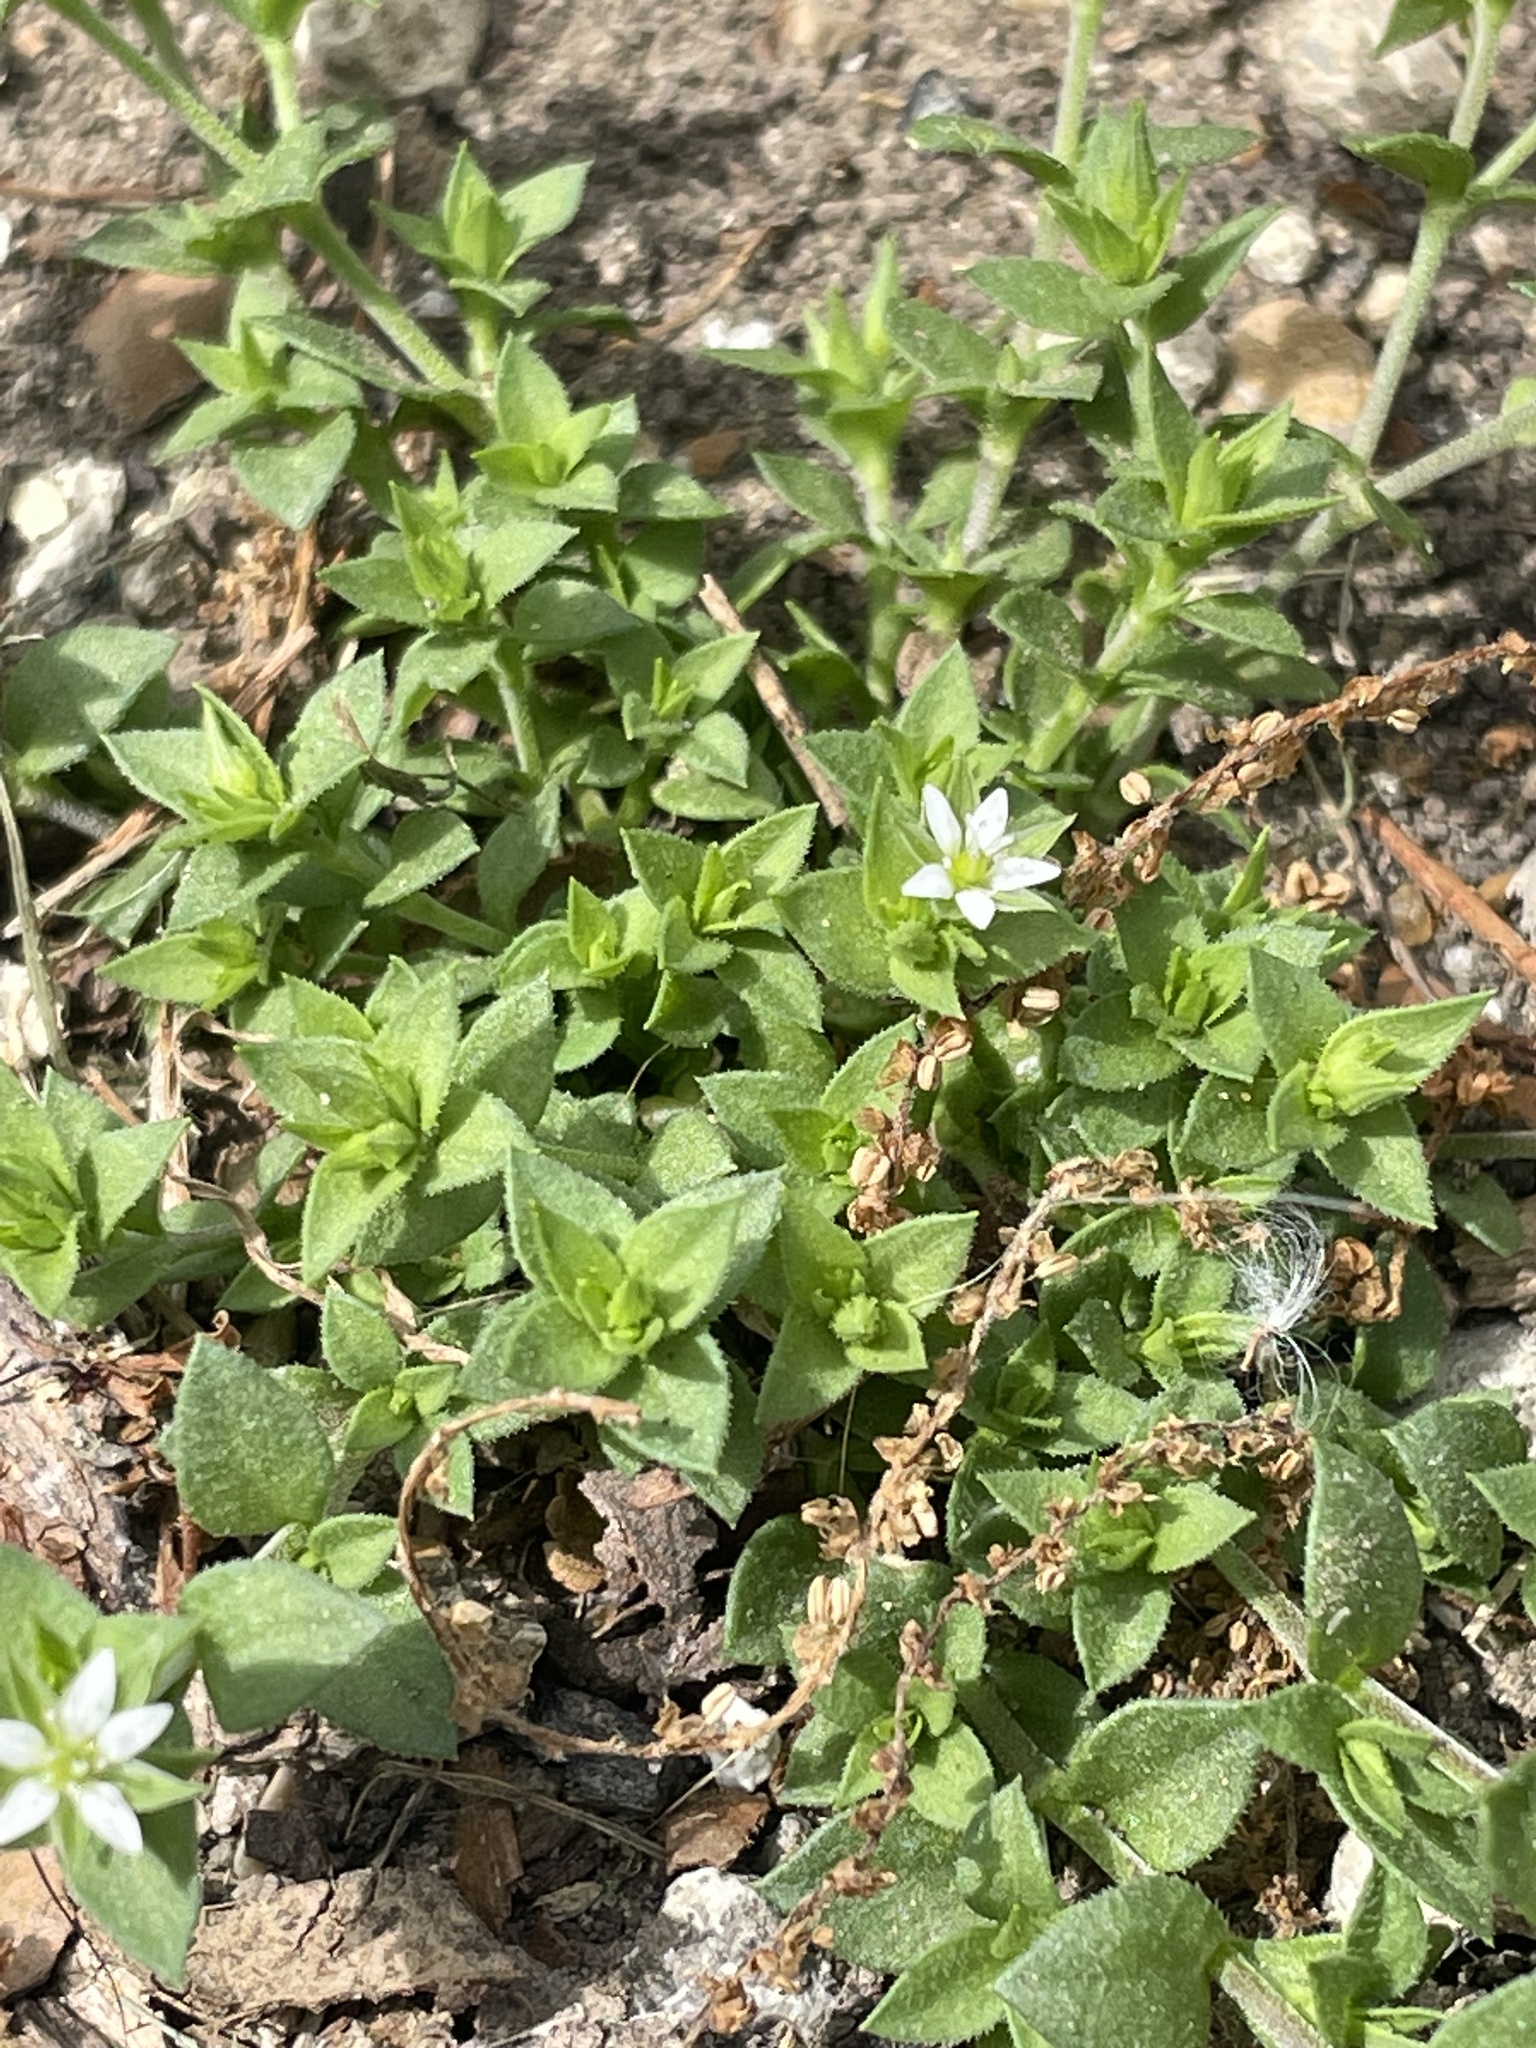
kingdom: Plantae
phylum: Tracheophyta
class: Magnoliopsida
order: Caryophyllales
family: Caryophyllaceae
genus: Arenaria
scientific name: Arenaria serpyllifolia
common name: Thyme-leaved sandwort
